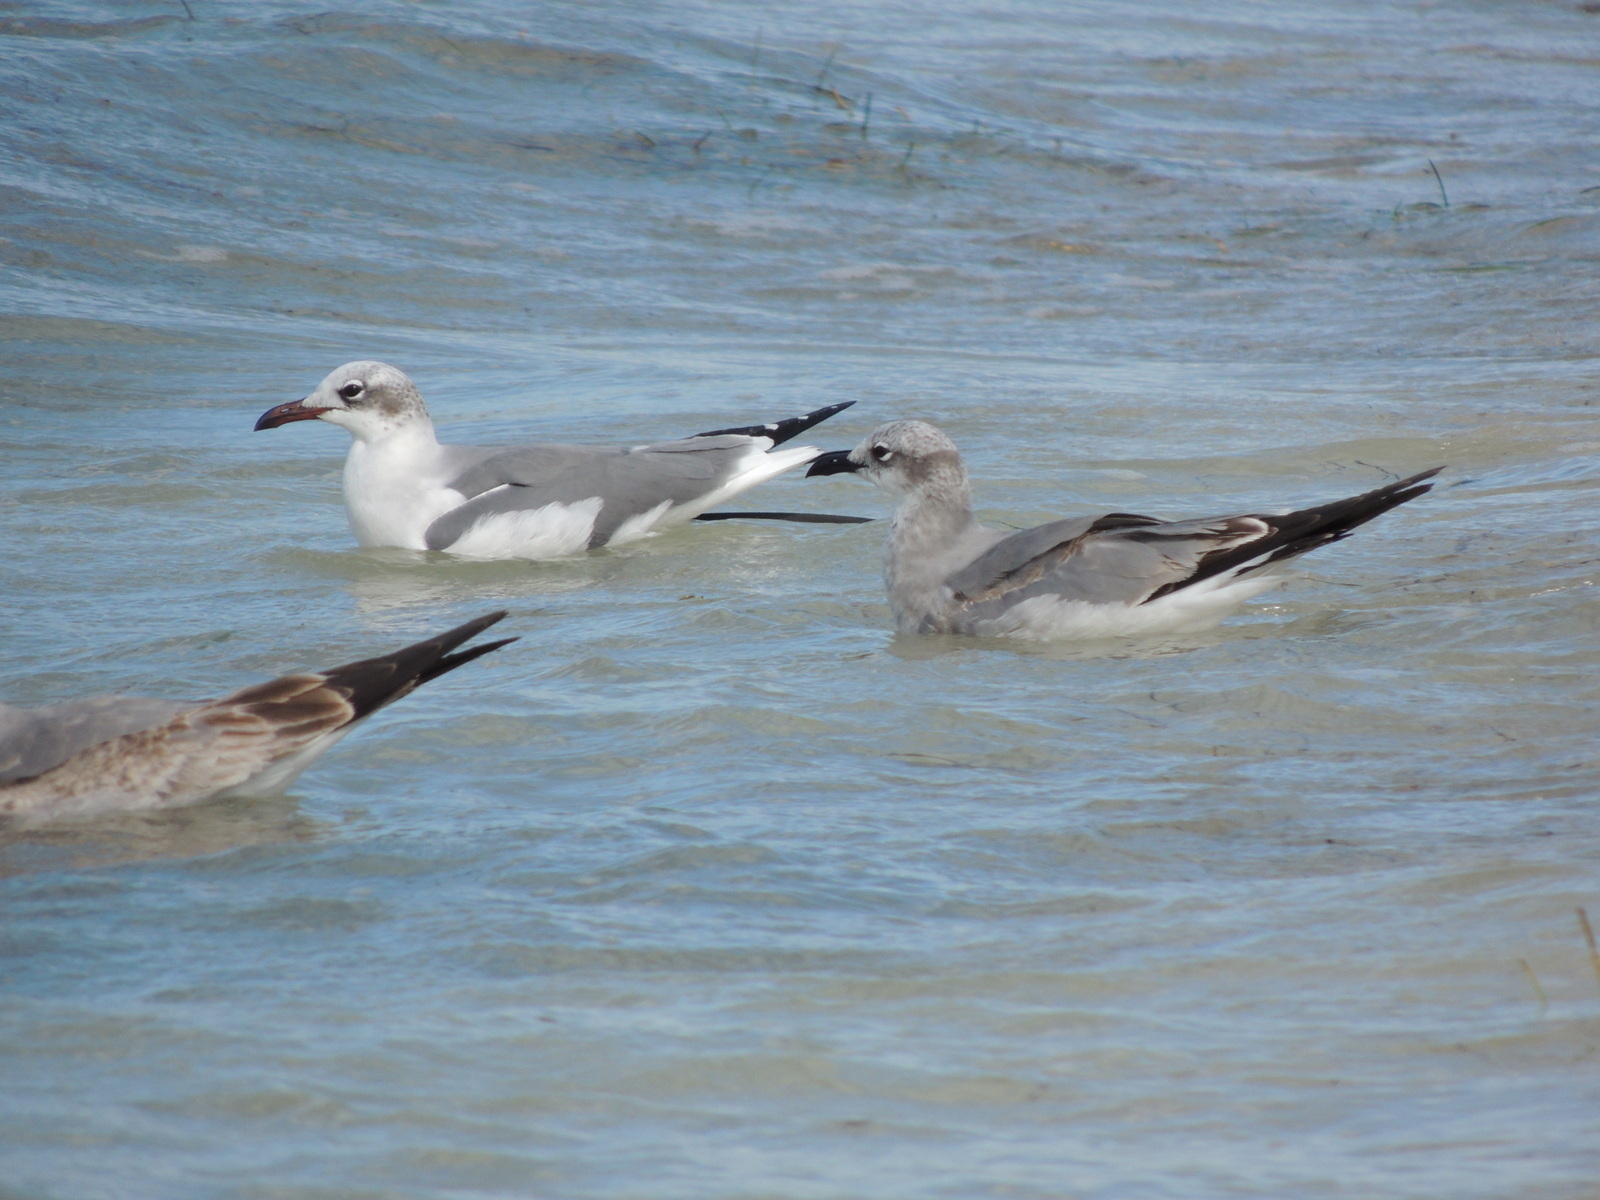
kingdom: Animalia
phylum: Chordata
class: Aves
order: Charadriiformes
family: Laridae
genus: Leucophaeus
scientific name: Leucophaeus atricilla
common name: Laughing gull
